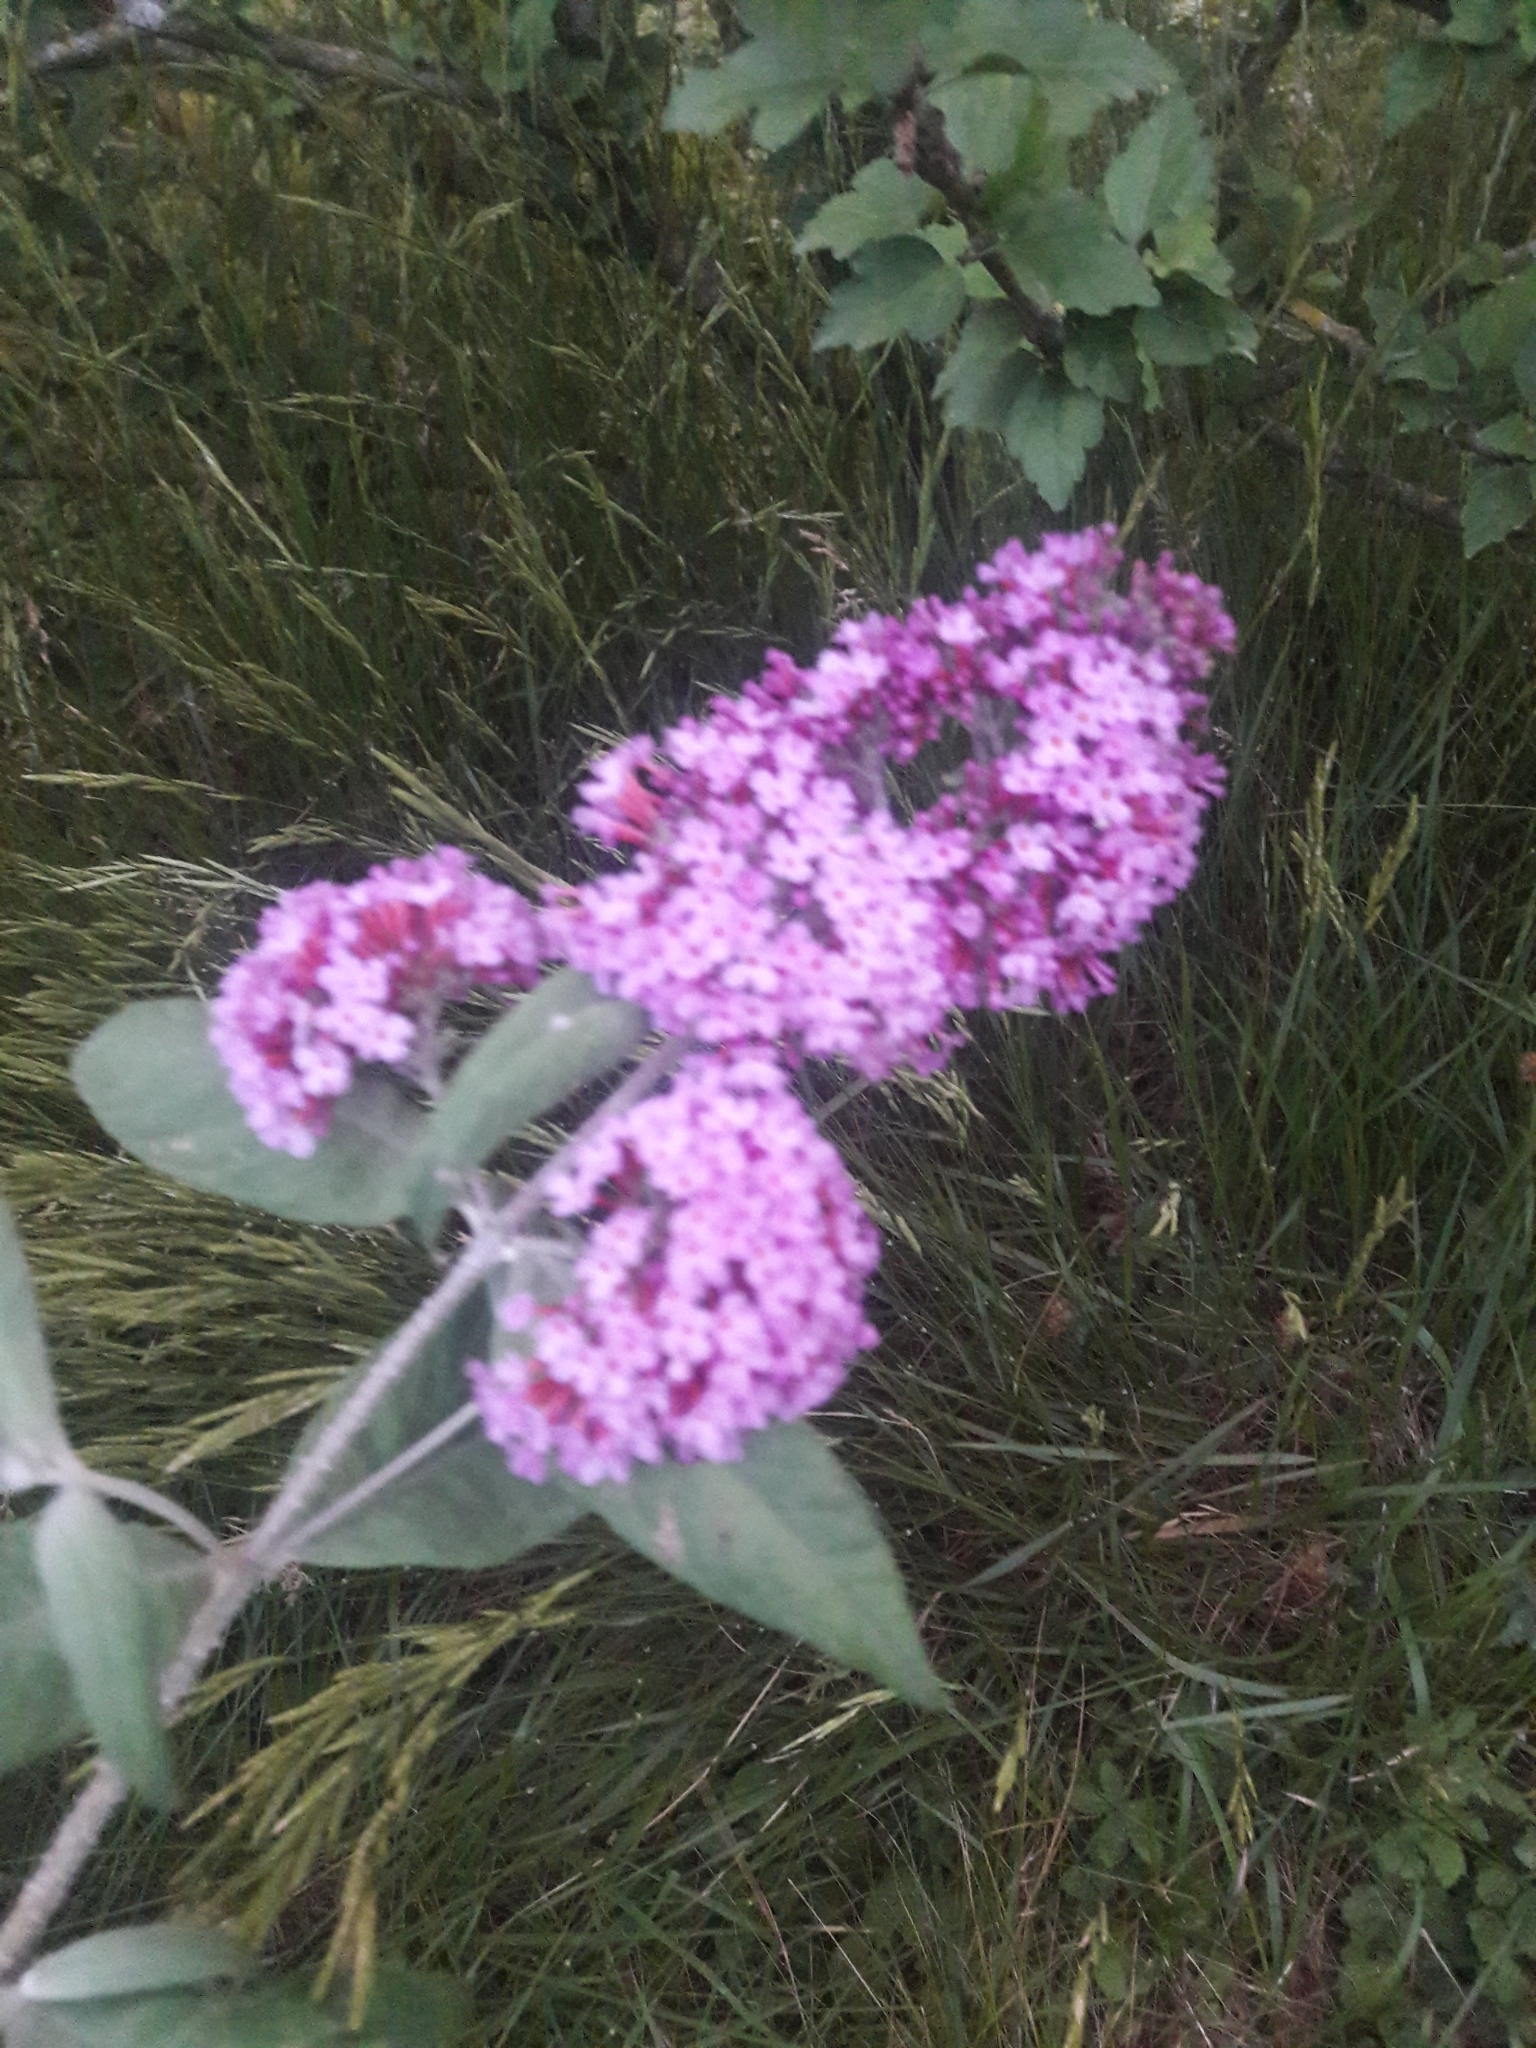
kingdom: Plantae
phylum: Tracheophyta
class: Magnoliopsida
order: Lamiales
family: Scrophulariaceae
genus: Buddleja
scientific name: Buddleja davidii
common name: Butterfly-bush
